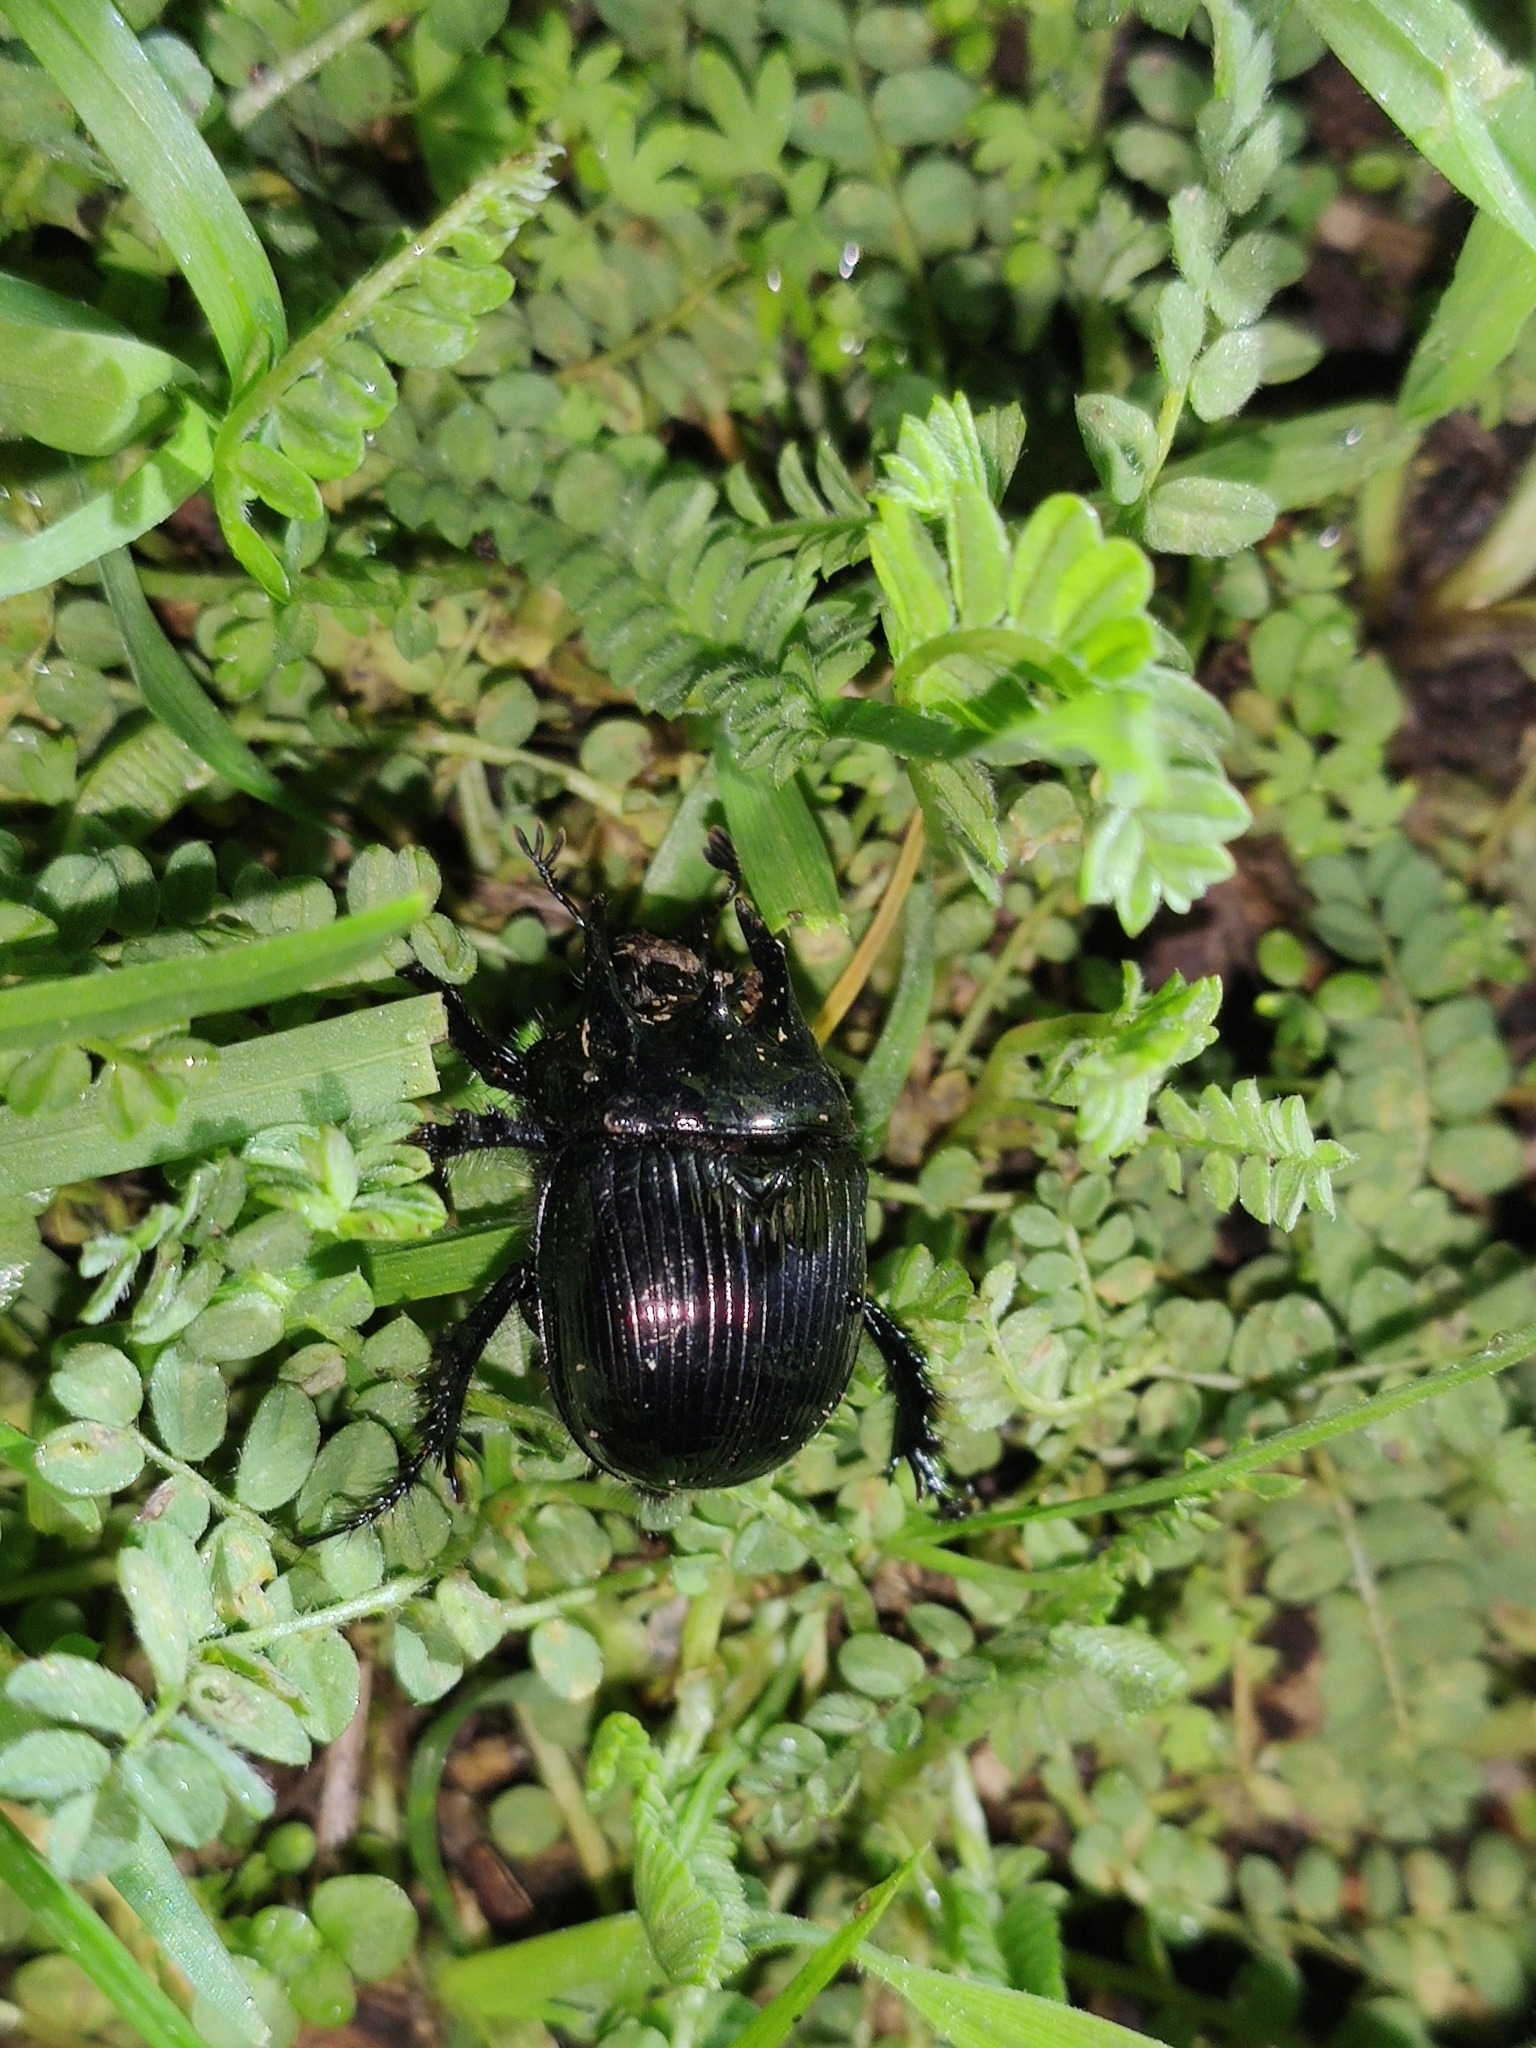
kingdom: Animalia
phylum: Arthropoda
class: Insecta
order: Coleoptera
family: Geotrupidae
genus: Typhaeus
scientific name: Typhaeus typhoeus
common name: Minotaur beetle
